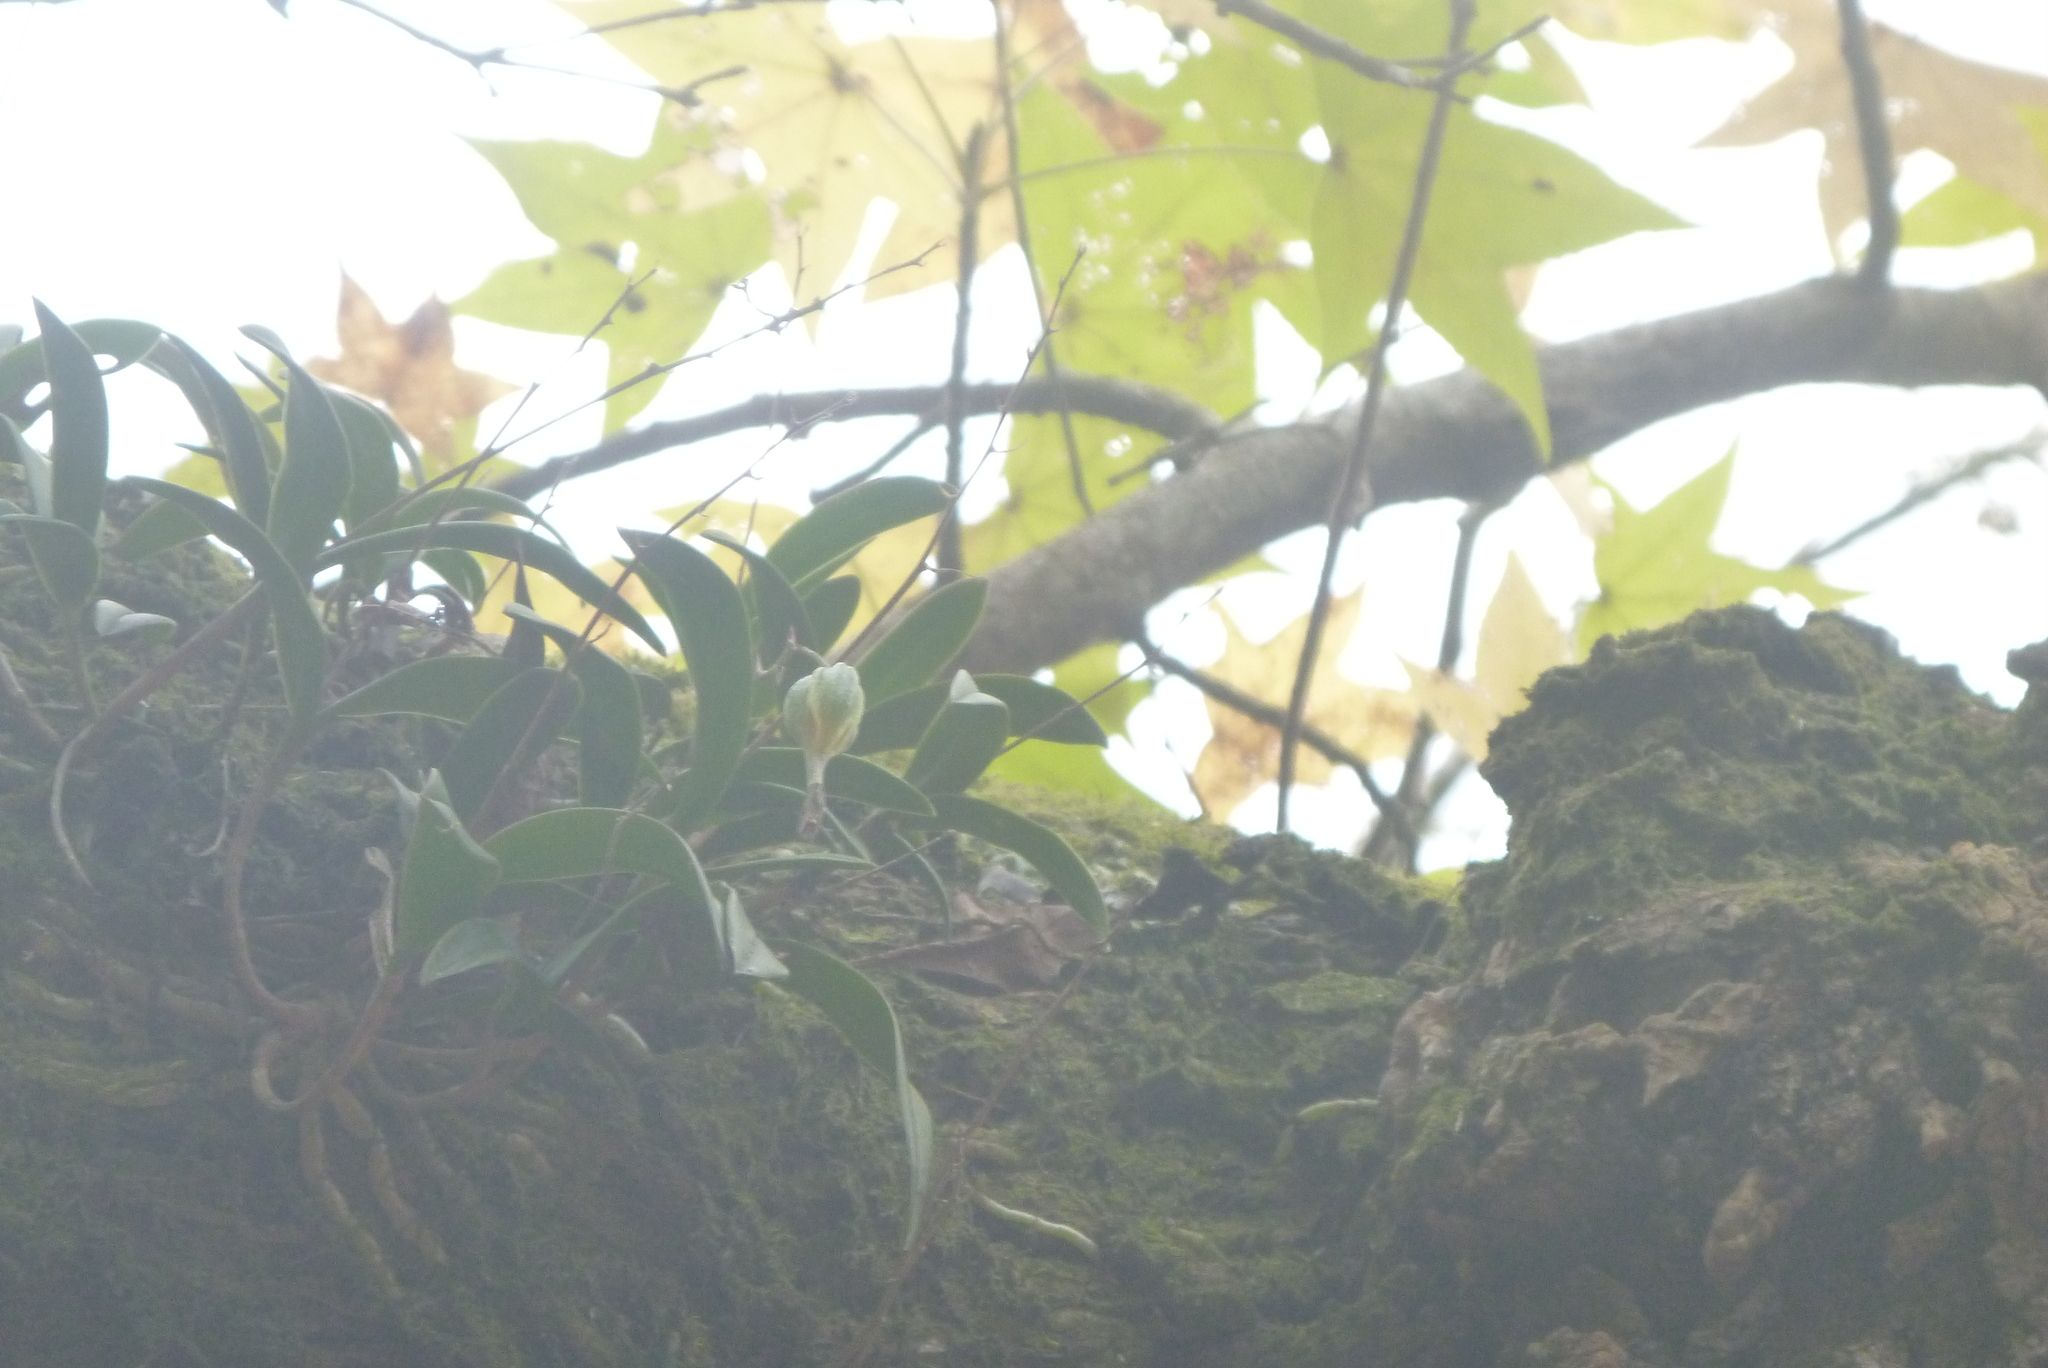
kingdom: Plantae
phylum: Tracheophyta
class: Liliopsida
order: Asparagales
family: Orchidaceae
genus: Epidendrum
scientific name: Epidendrum conopseum
